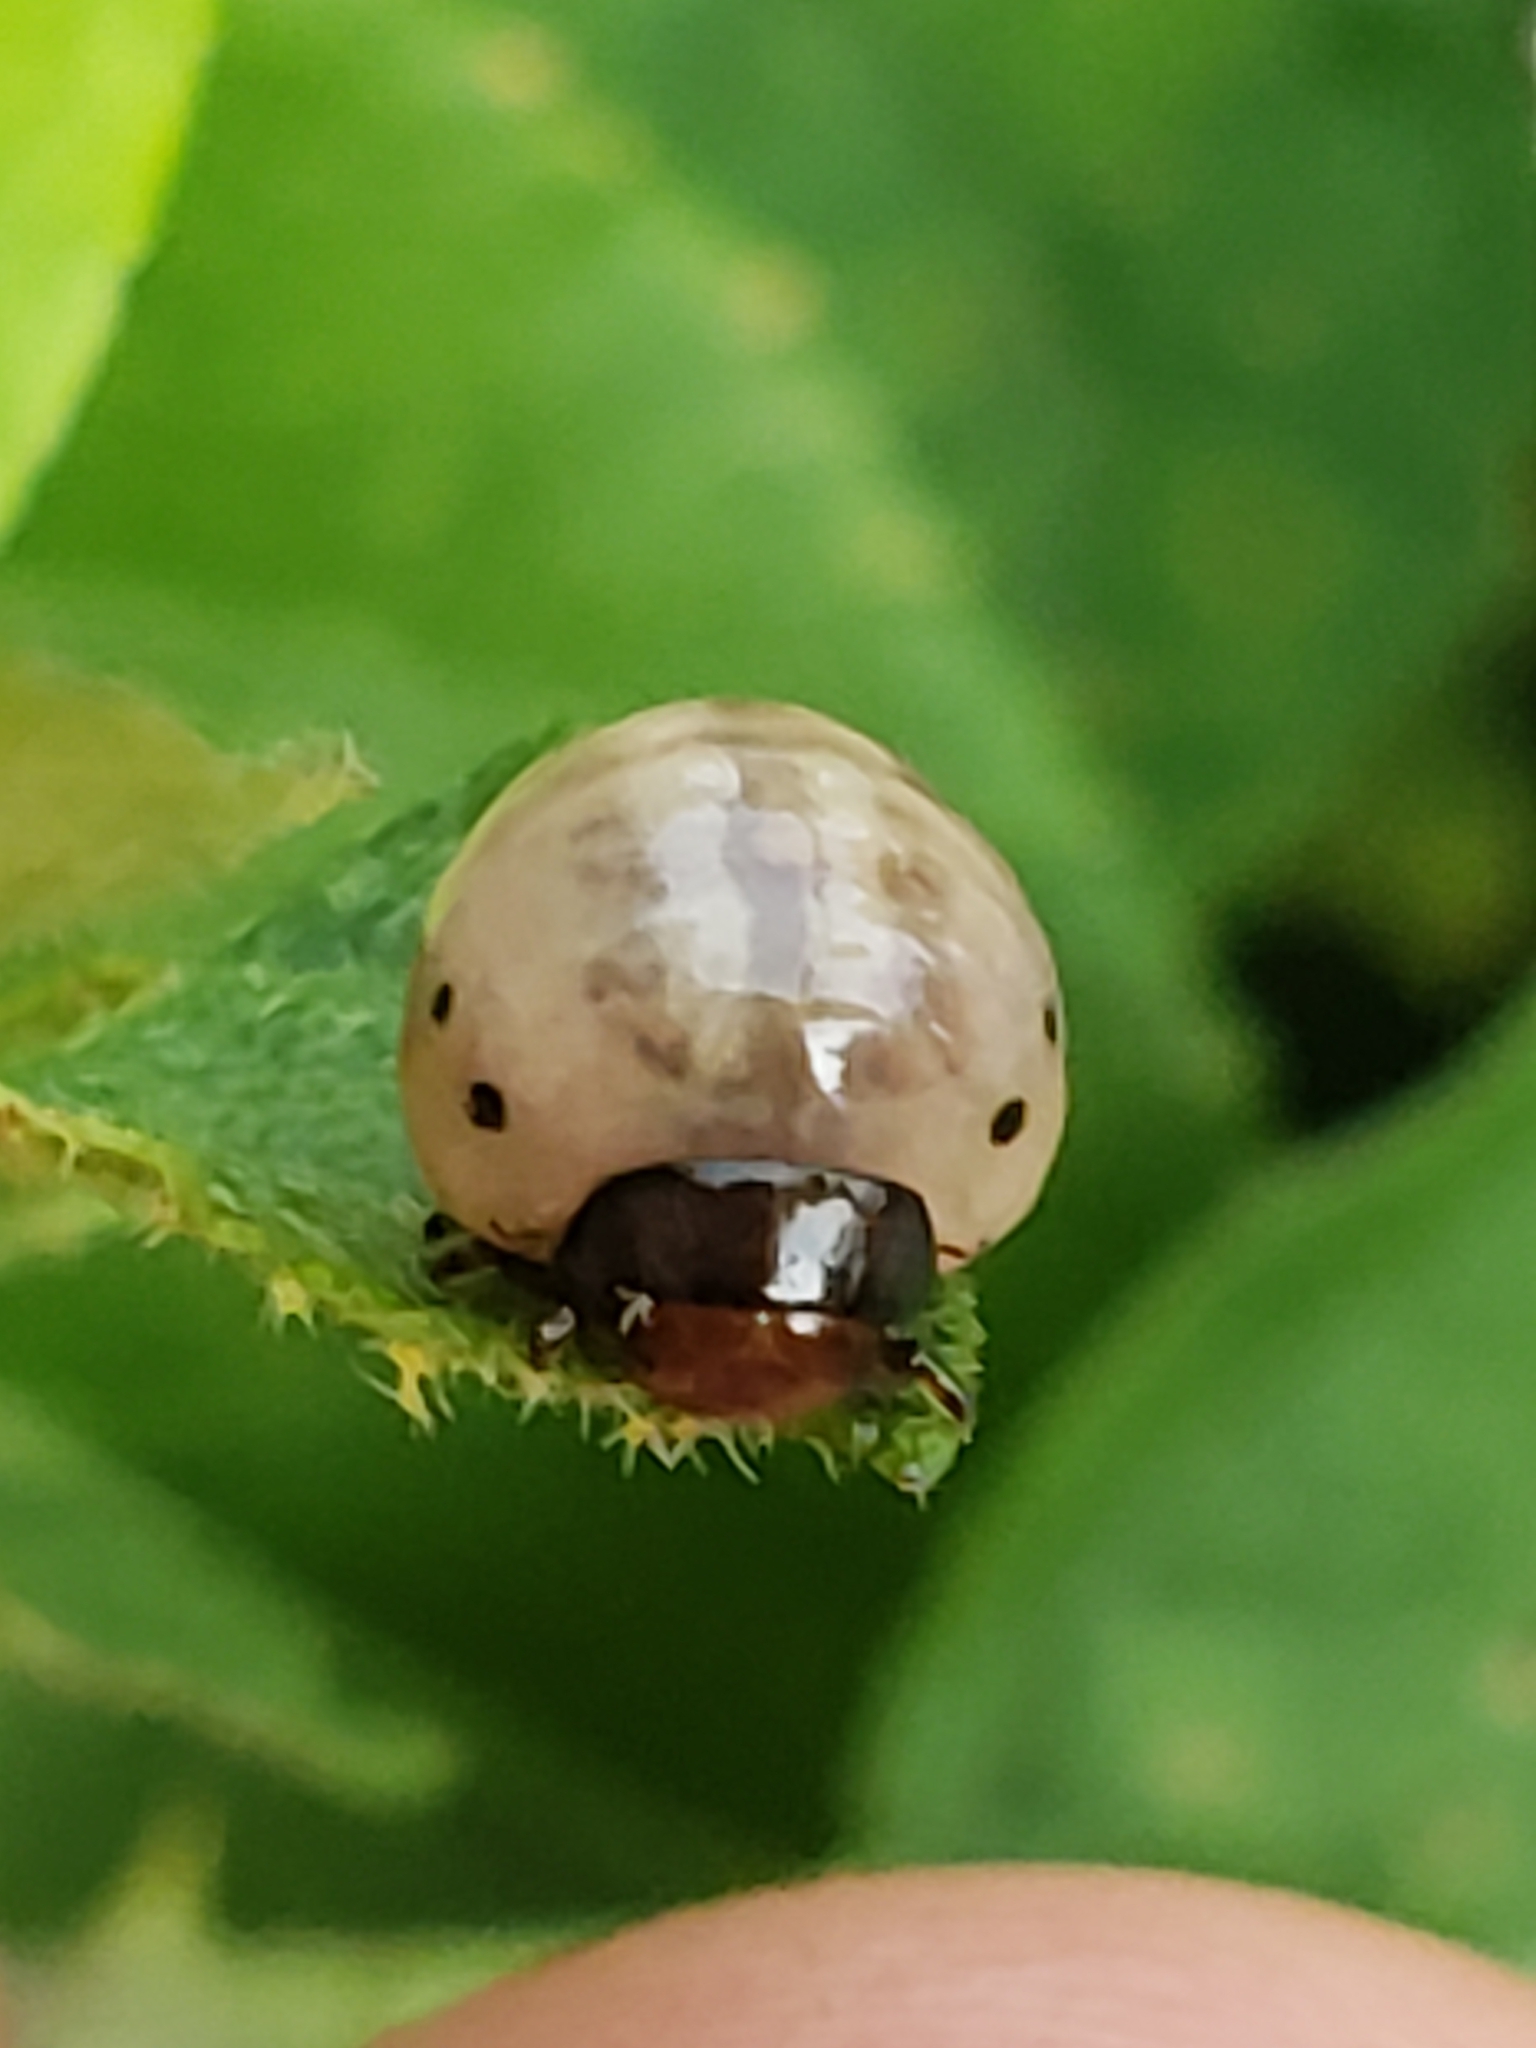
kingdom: Animalia
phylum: Arthropoda
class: Insecta
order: Coleoptera
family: Chrysomelidae
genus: Leptinotarsa
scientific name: Leptinotarsa juncta
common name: False potato beetle
